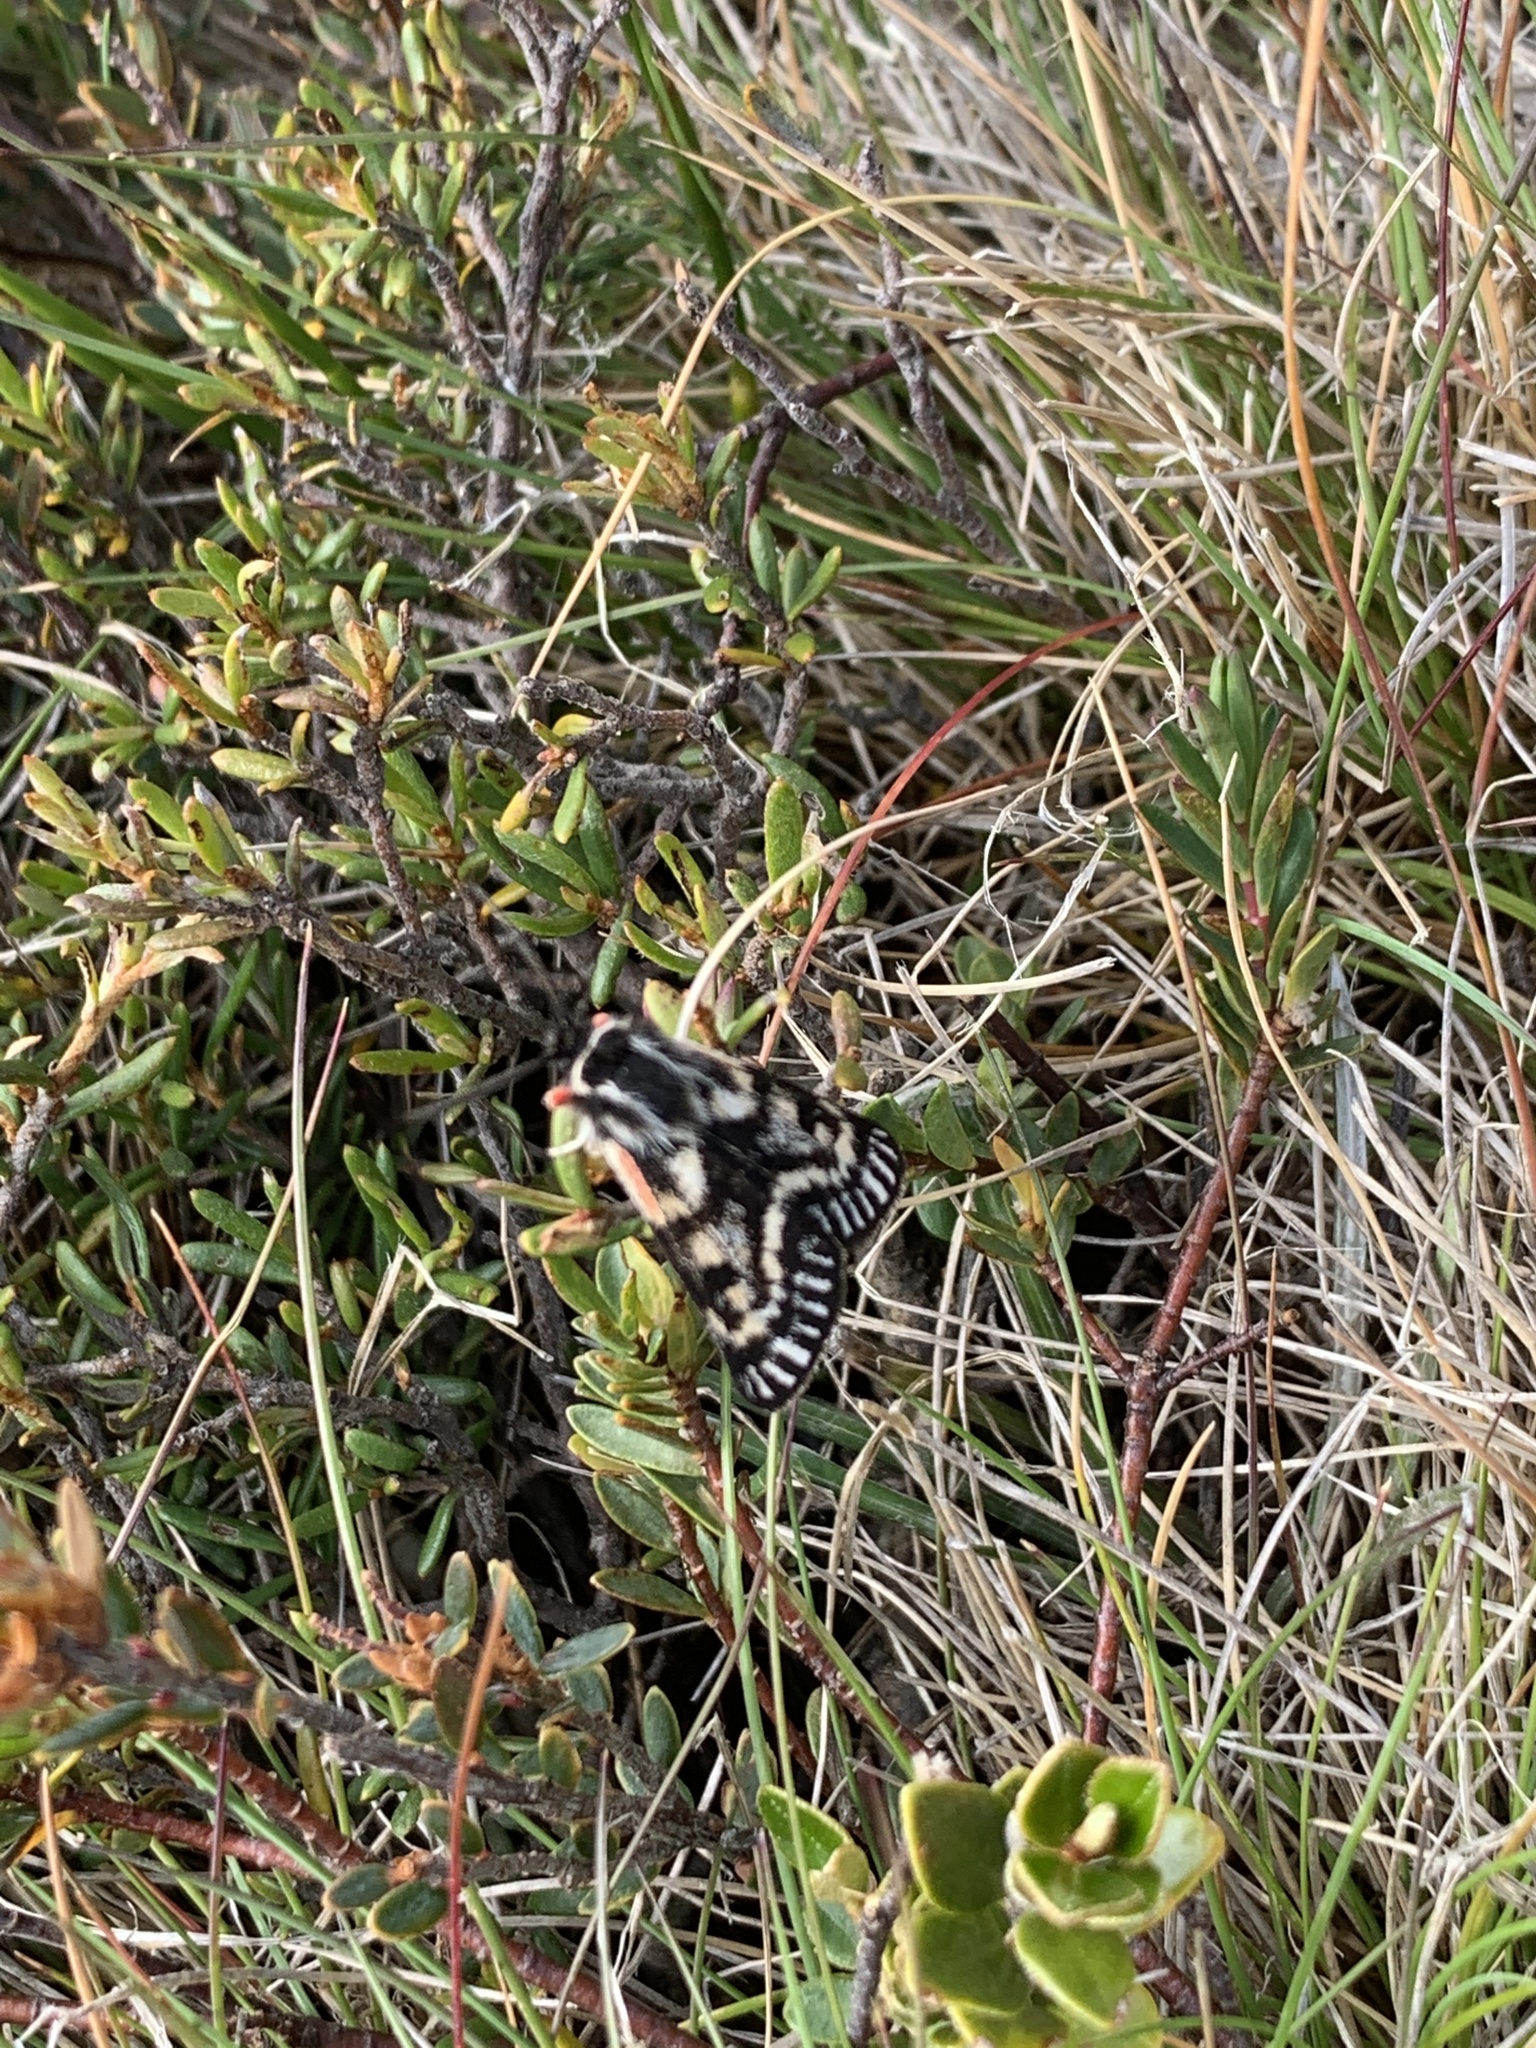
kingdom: Animalia
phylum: Arthropoda
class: Insecta
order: Lepidoptera
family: Erebidae
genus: Phaos
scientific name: Phaos aglaophara
